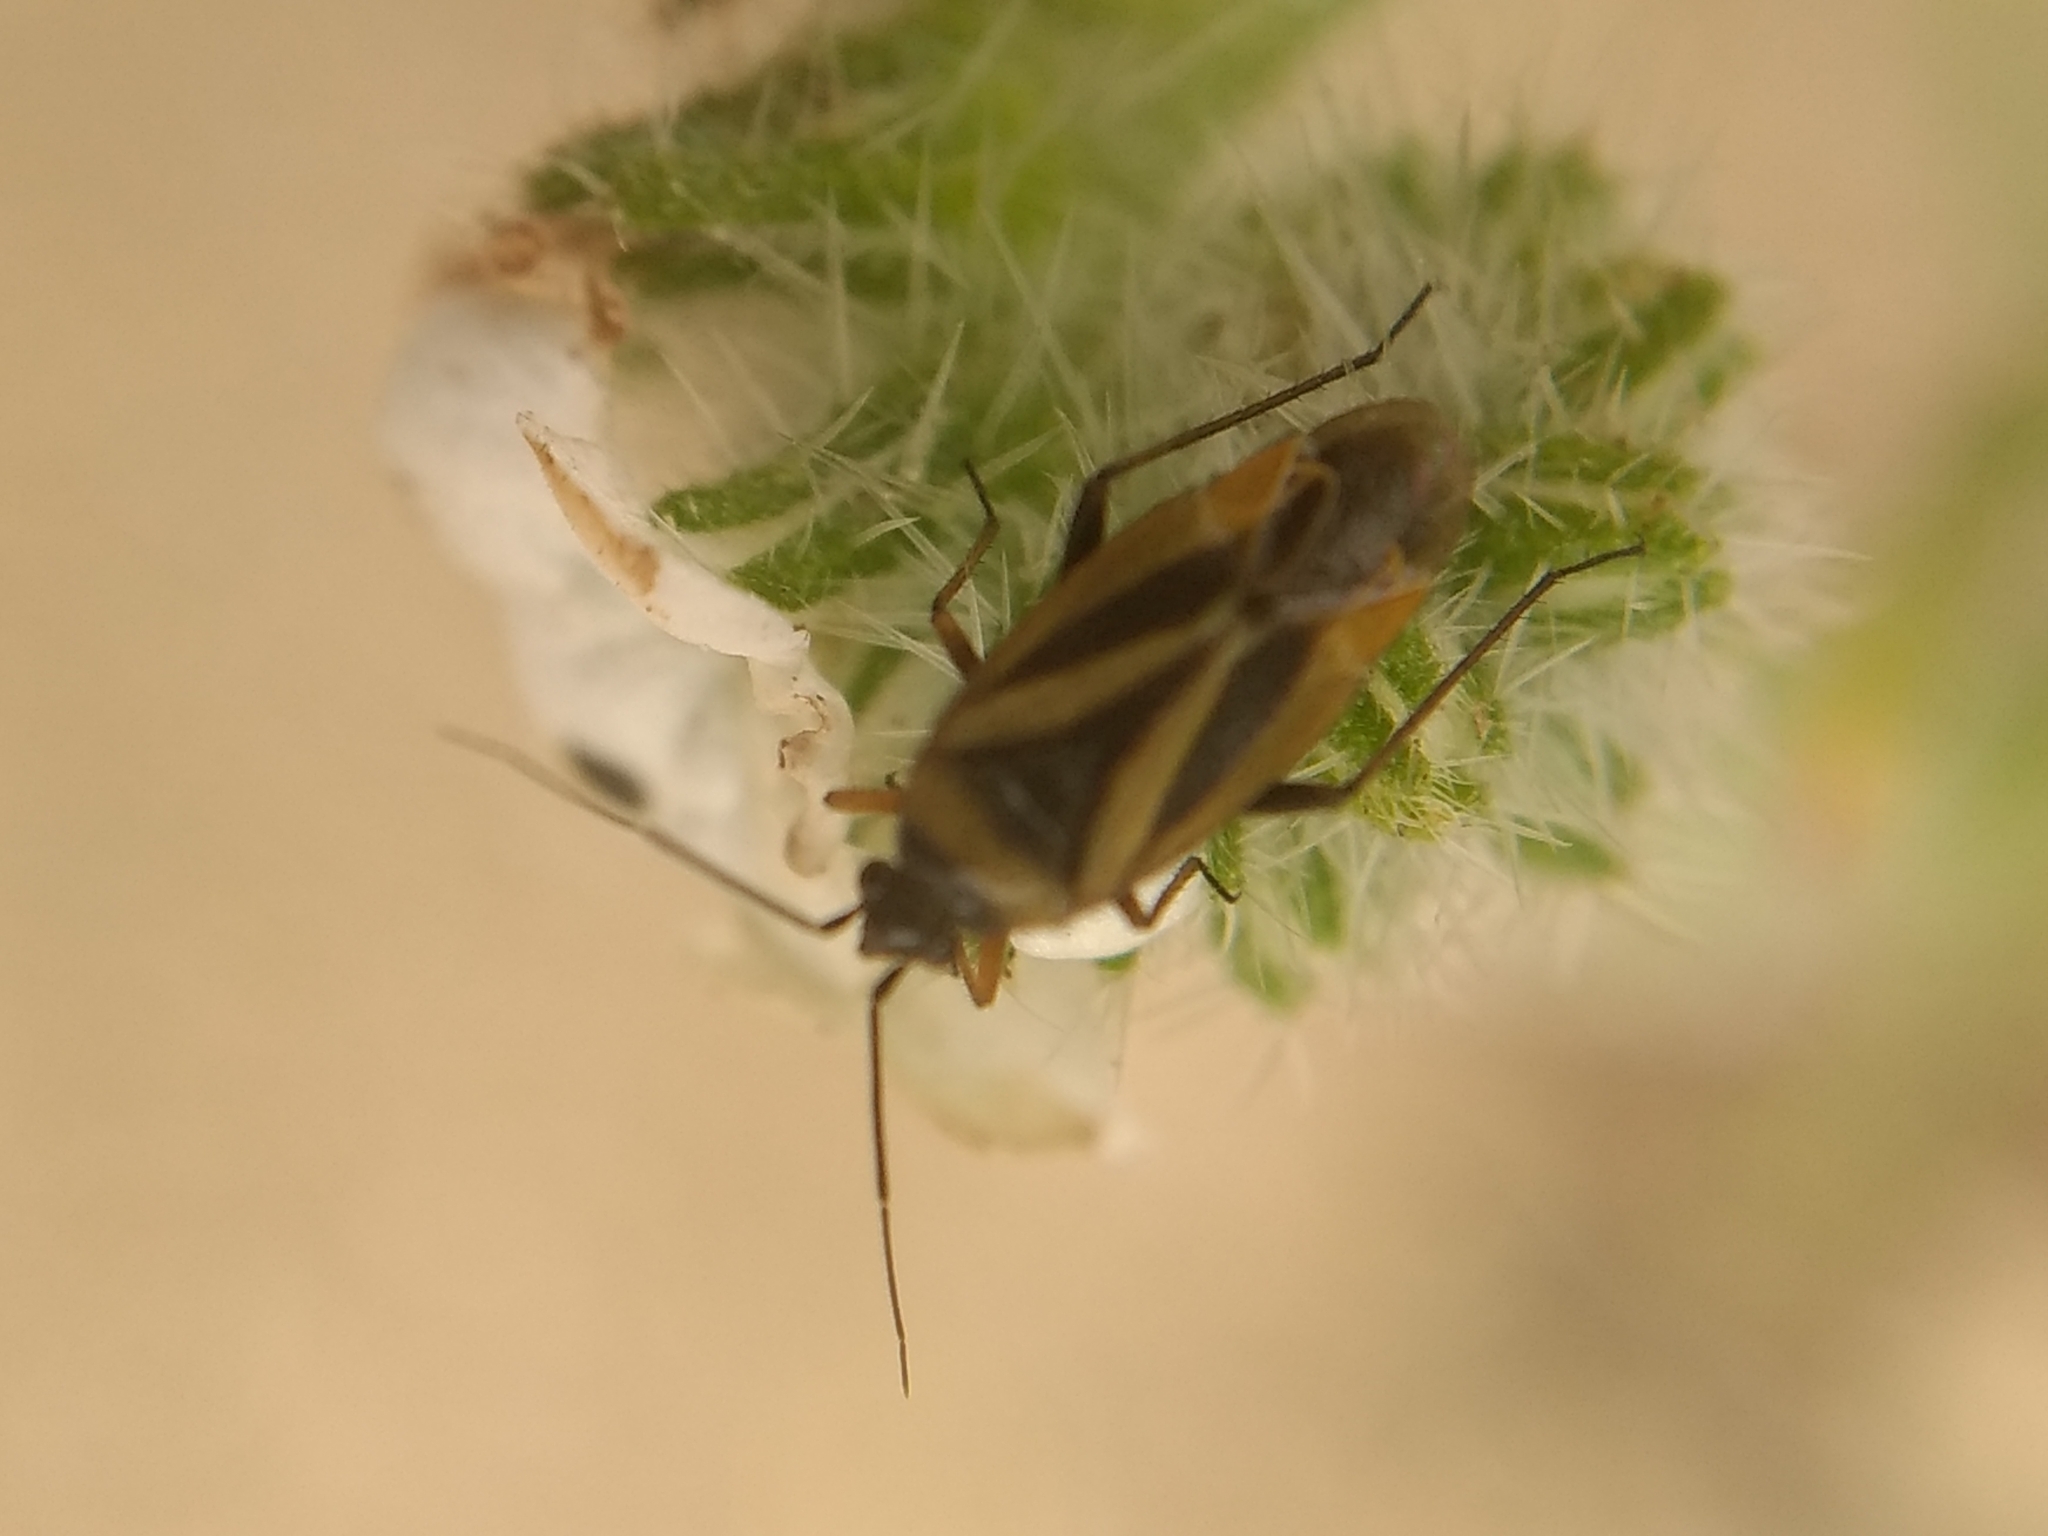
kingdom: Animalia
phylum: Arthropoda
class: Insecta
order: Hemiptera
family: Miridae
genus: Plagiognathus
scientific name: Plagiognathus moerens
